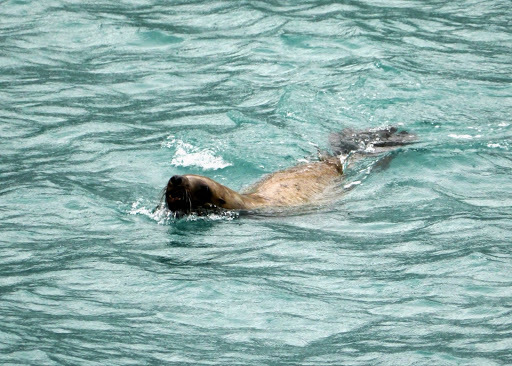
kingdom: Animalia
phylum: Chordata
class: Mammalia
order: Carnivora
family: Otariidae
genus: Eumetopias
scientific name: Eumetopias jubatus
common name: Steller sea lion
